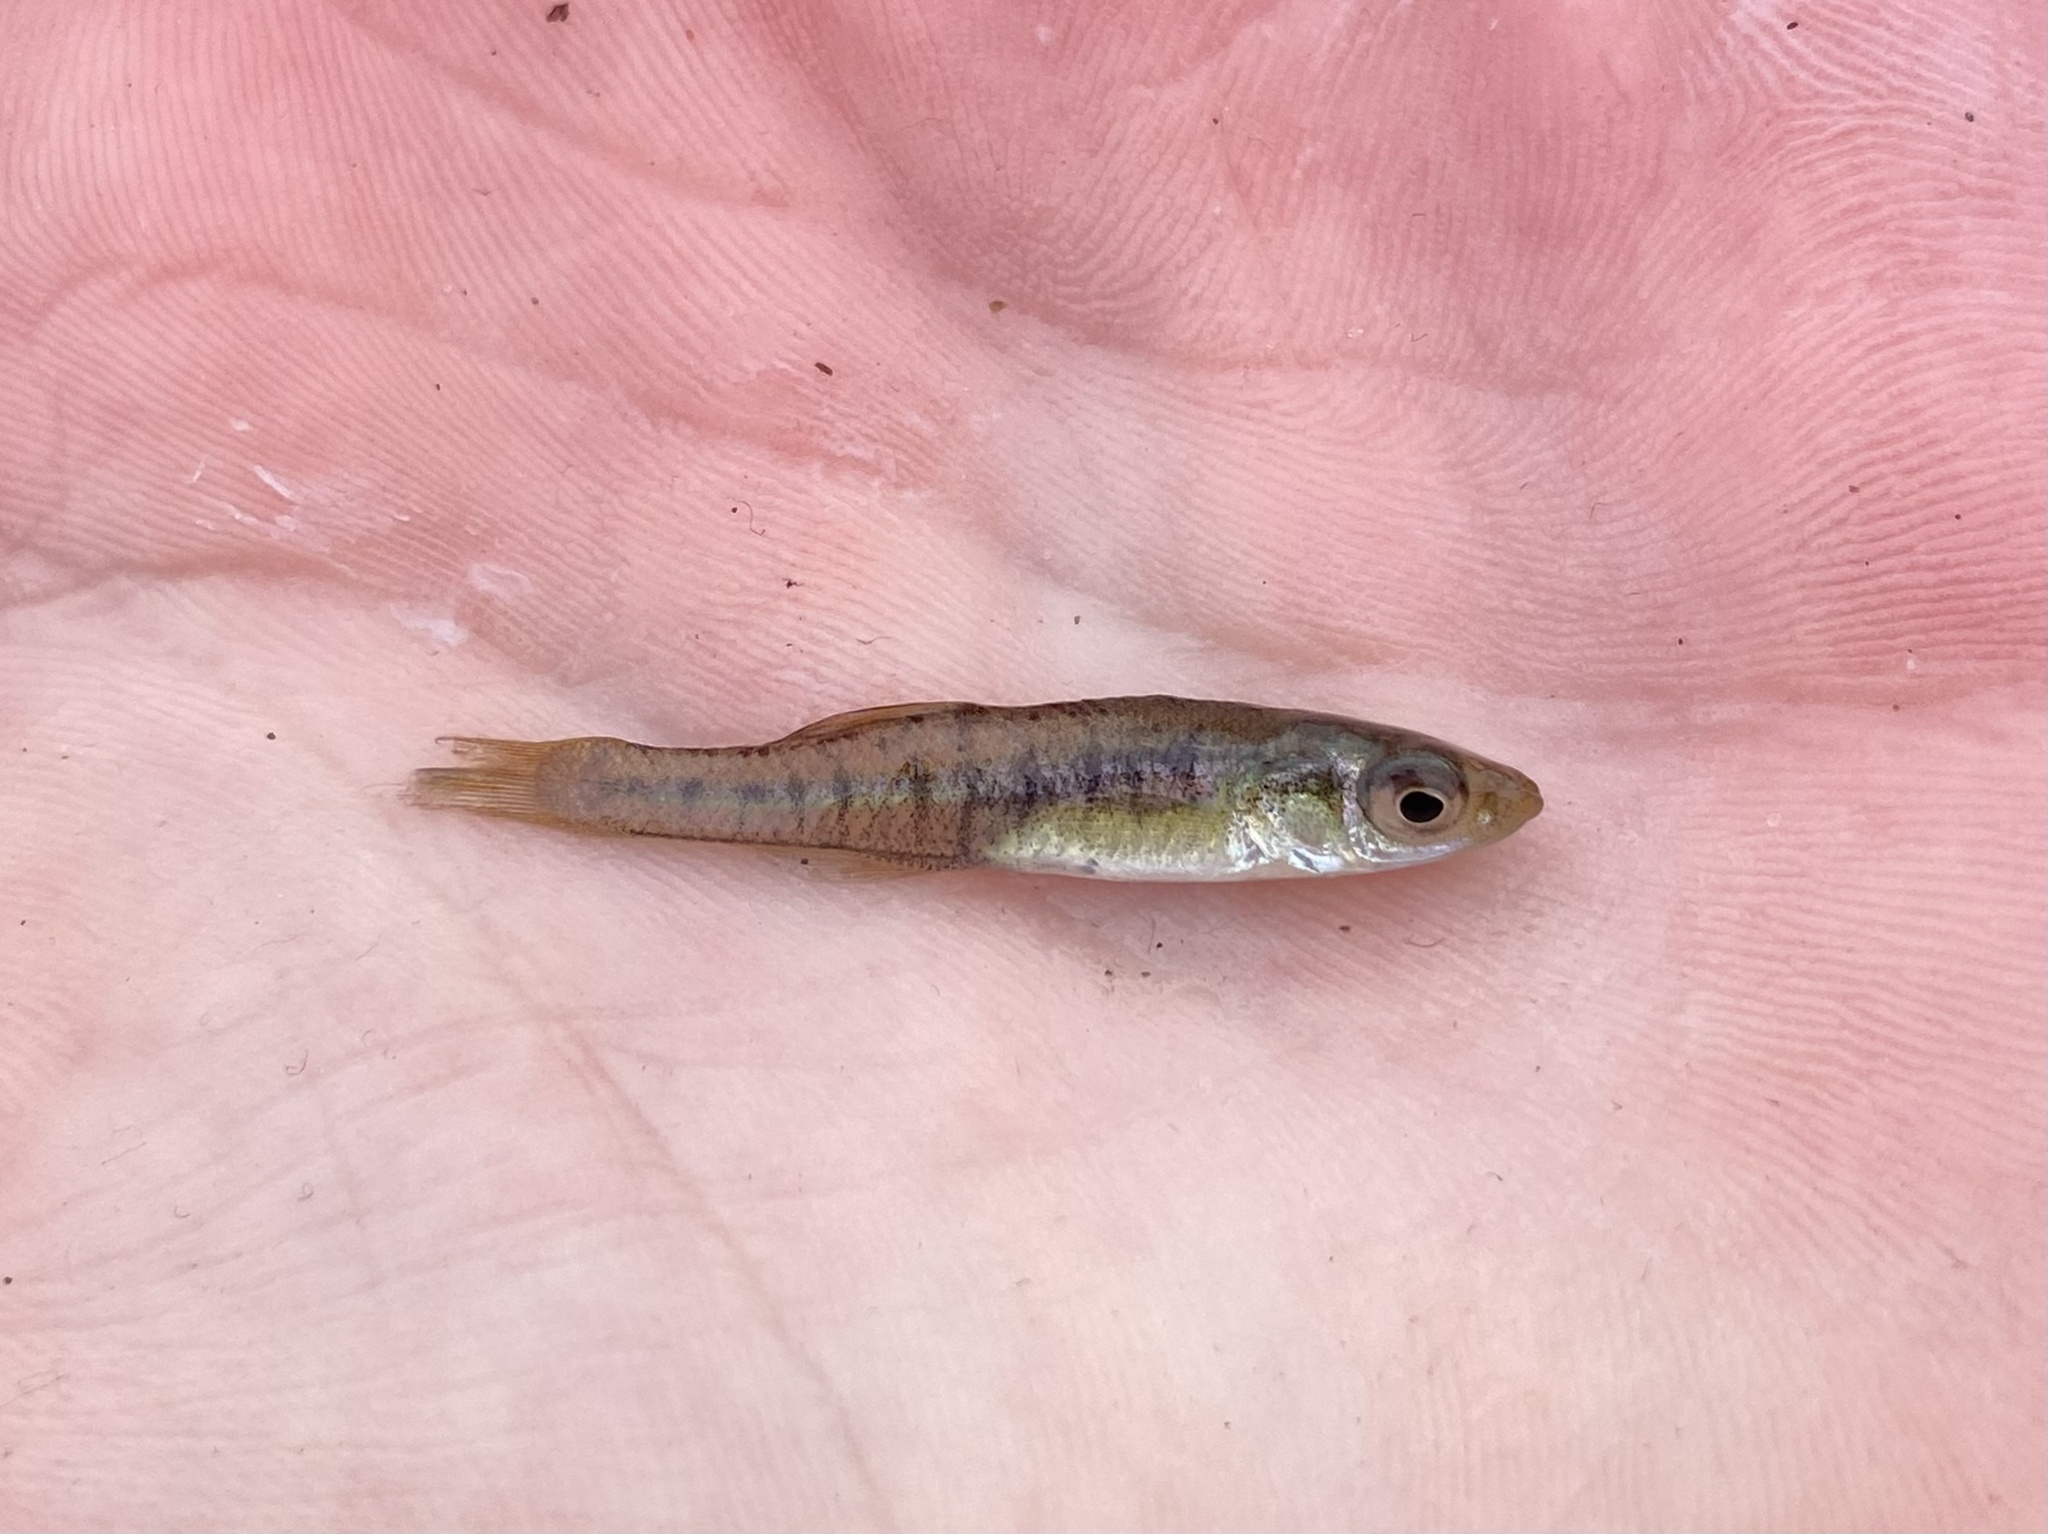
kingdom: Animalia
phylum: Chordata
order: Cyprinodontiformes
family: Fundulidae
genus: Fundulus
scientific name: Fundulus diaphanus
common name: Banded killifish
